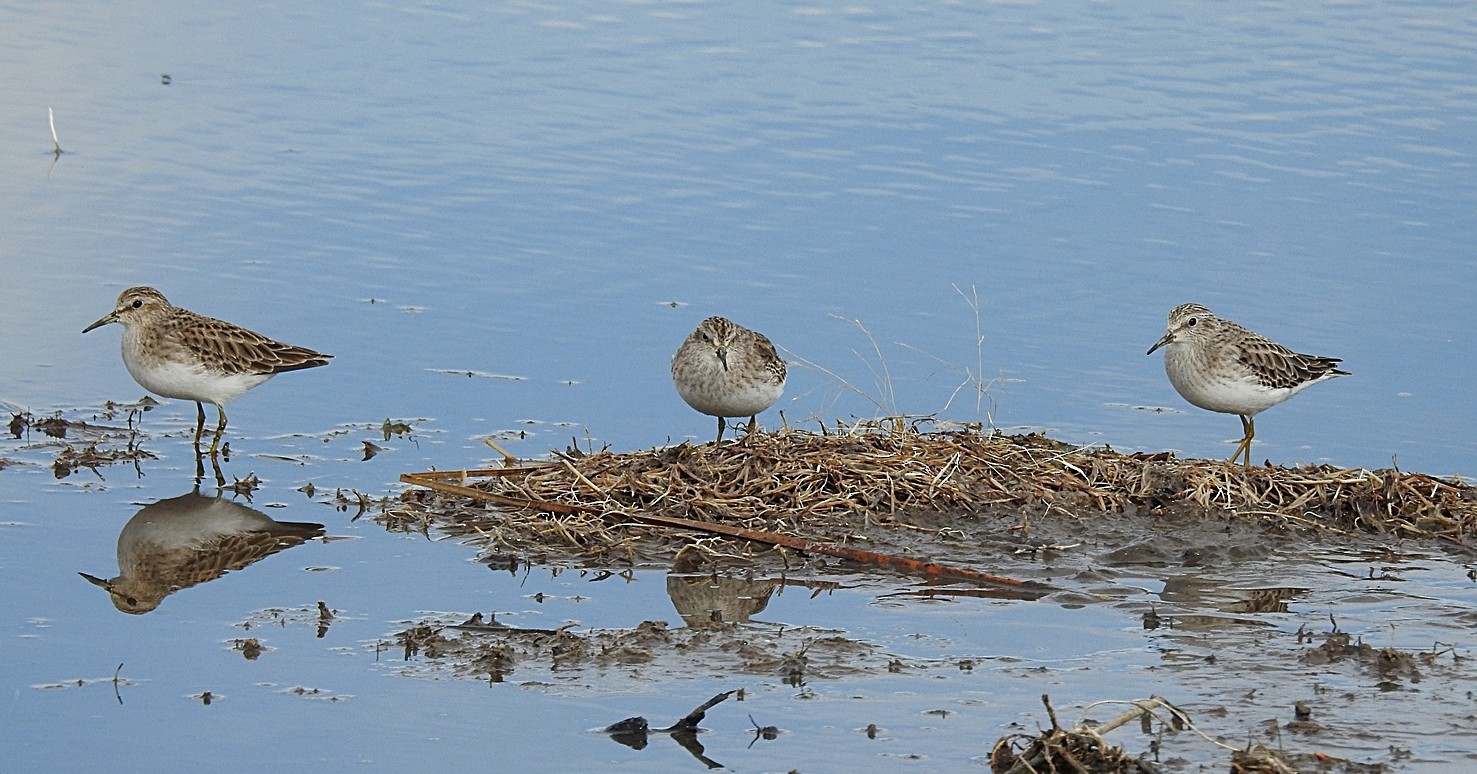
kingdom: Animalia
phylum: Chordata
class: Aves
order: Charadriiformes
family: Scolopacidae
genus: Calidris
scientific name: Calidris minutilla
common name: Least sandpiper
